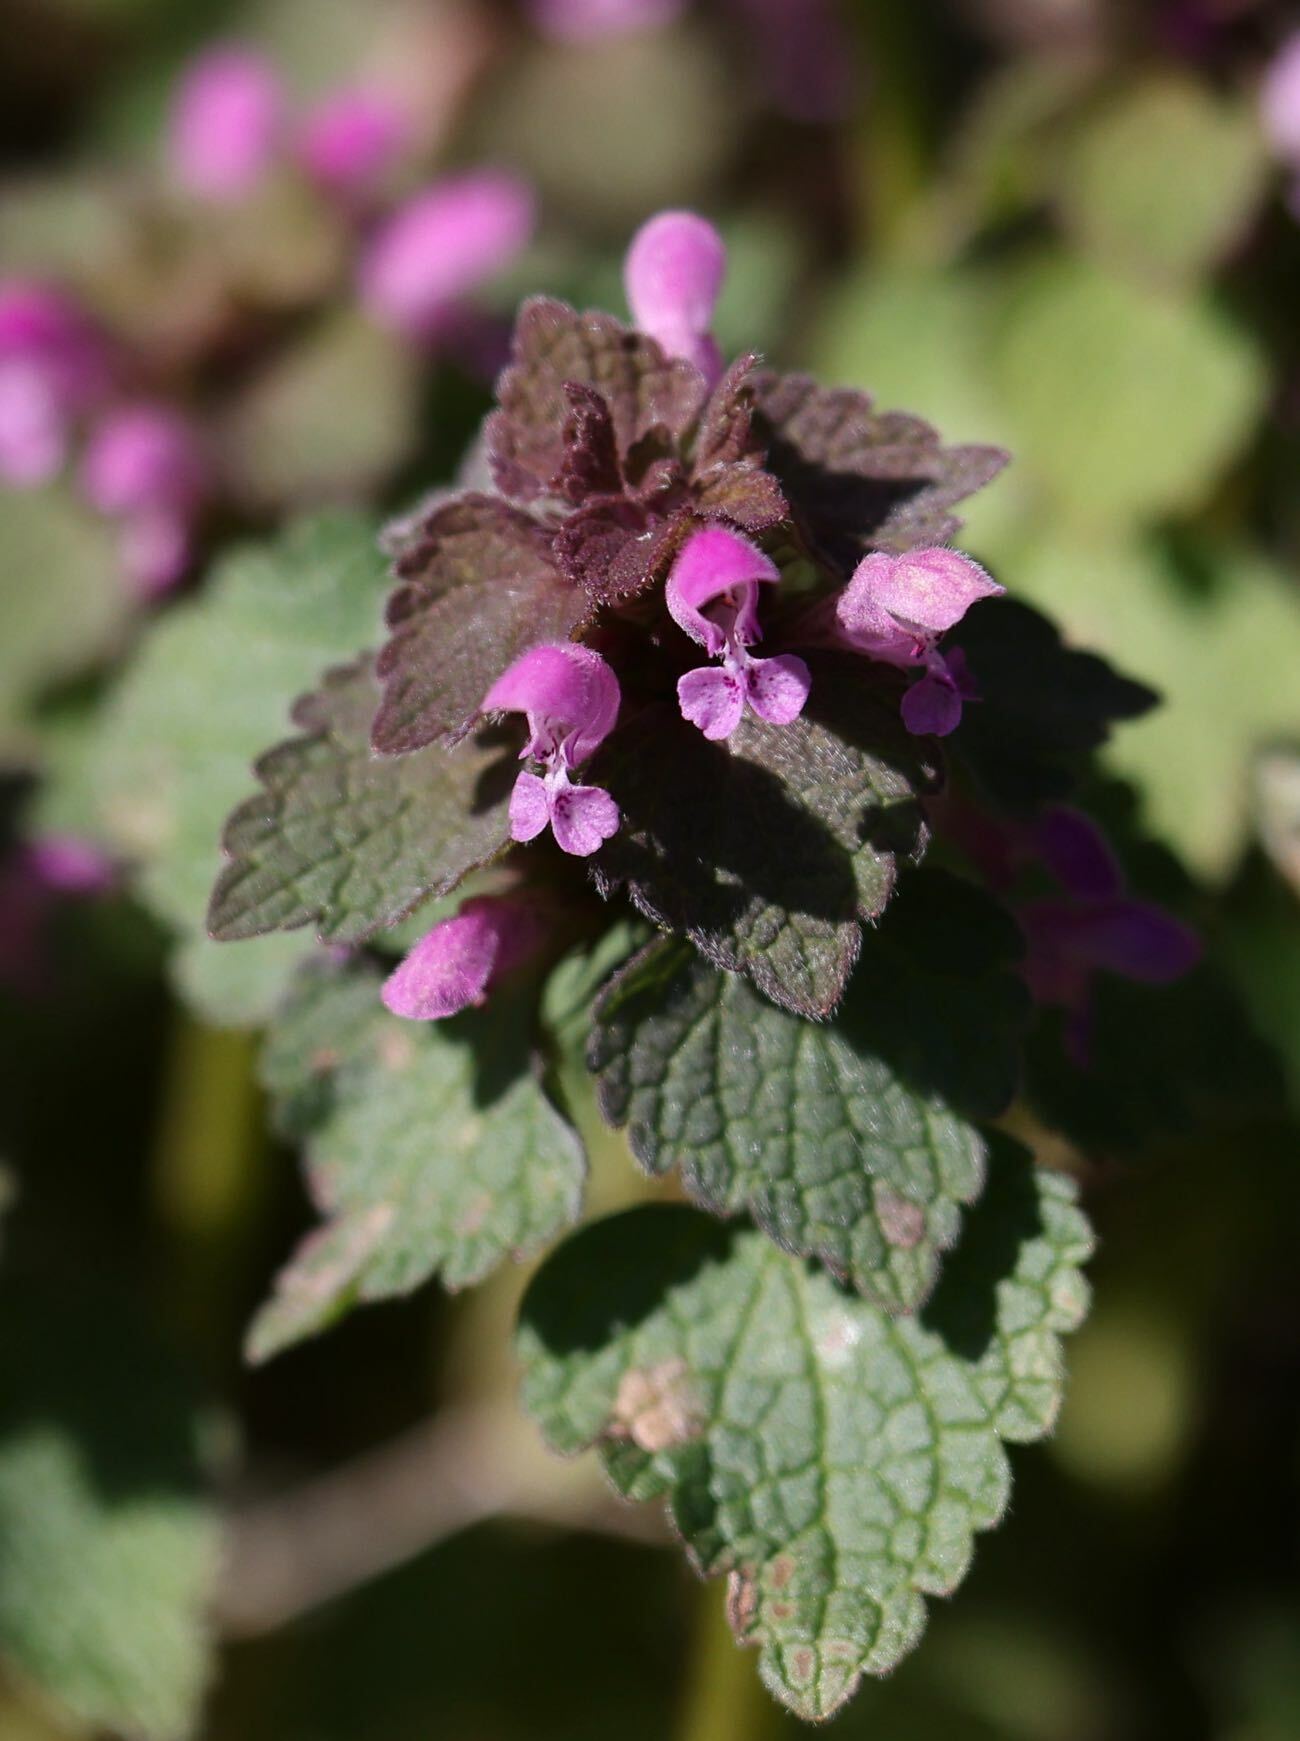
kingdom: Plantae
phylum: Tracheophyta
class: Magnoliopsida
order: Lamiales
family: Lamiaceae
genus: Lamium
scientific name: Lamium purpureum
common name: Red dead-nettle
